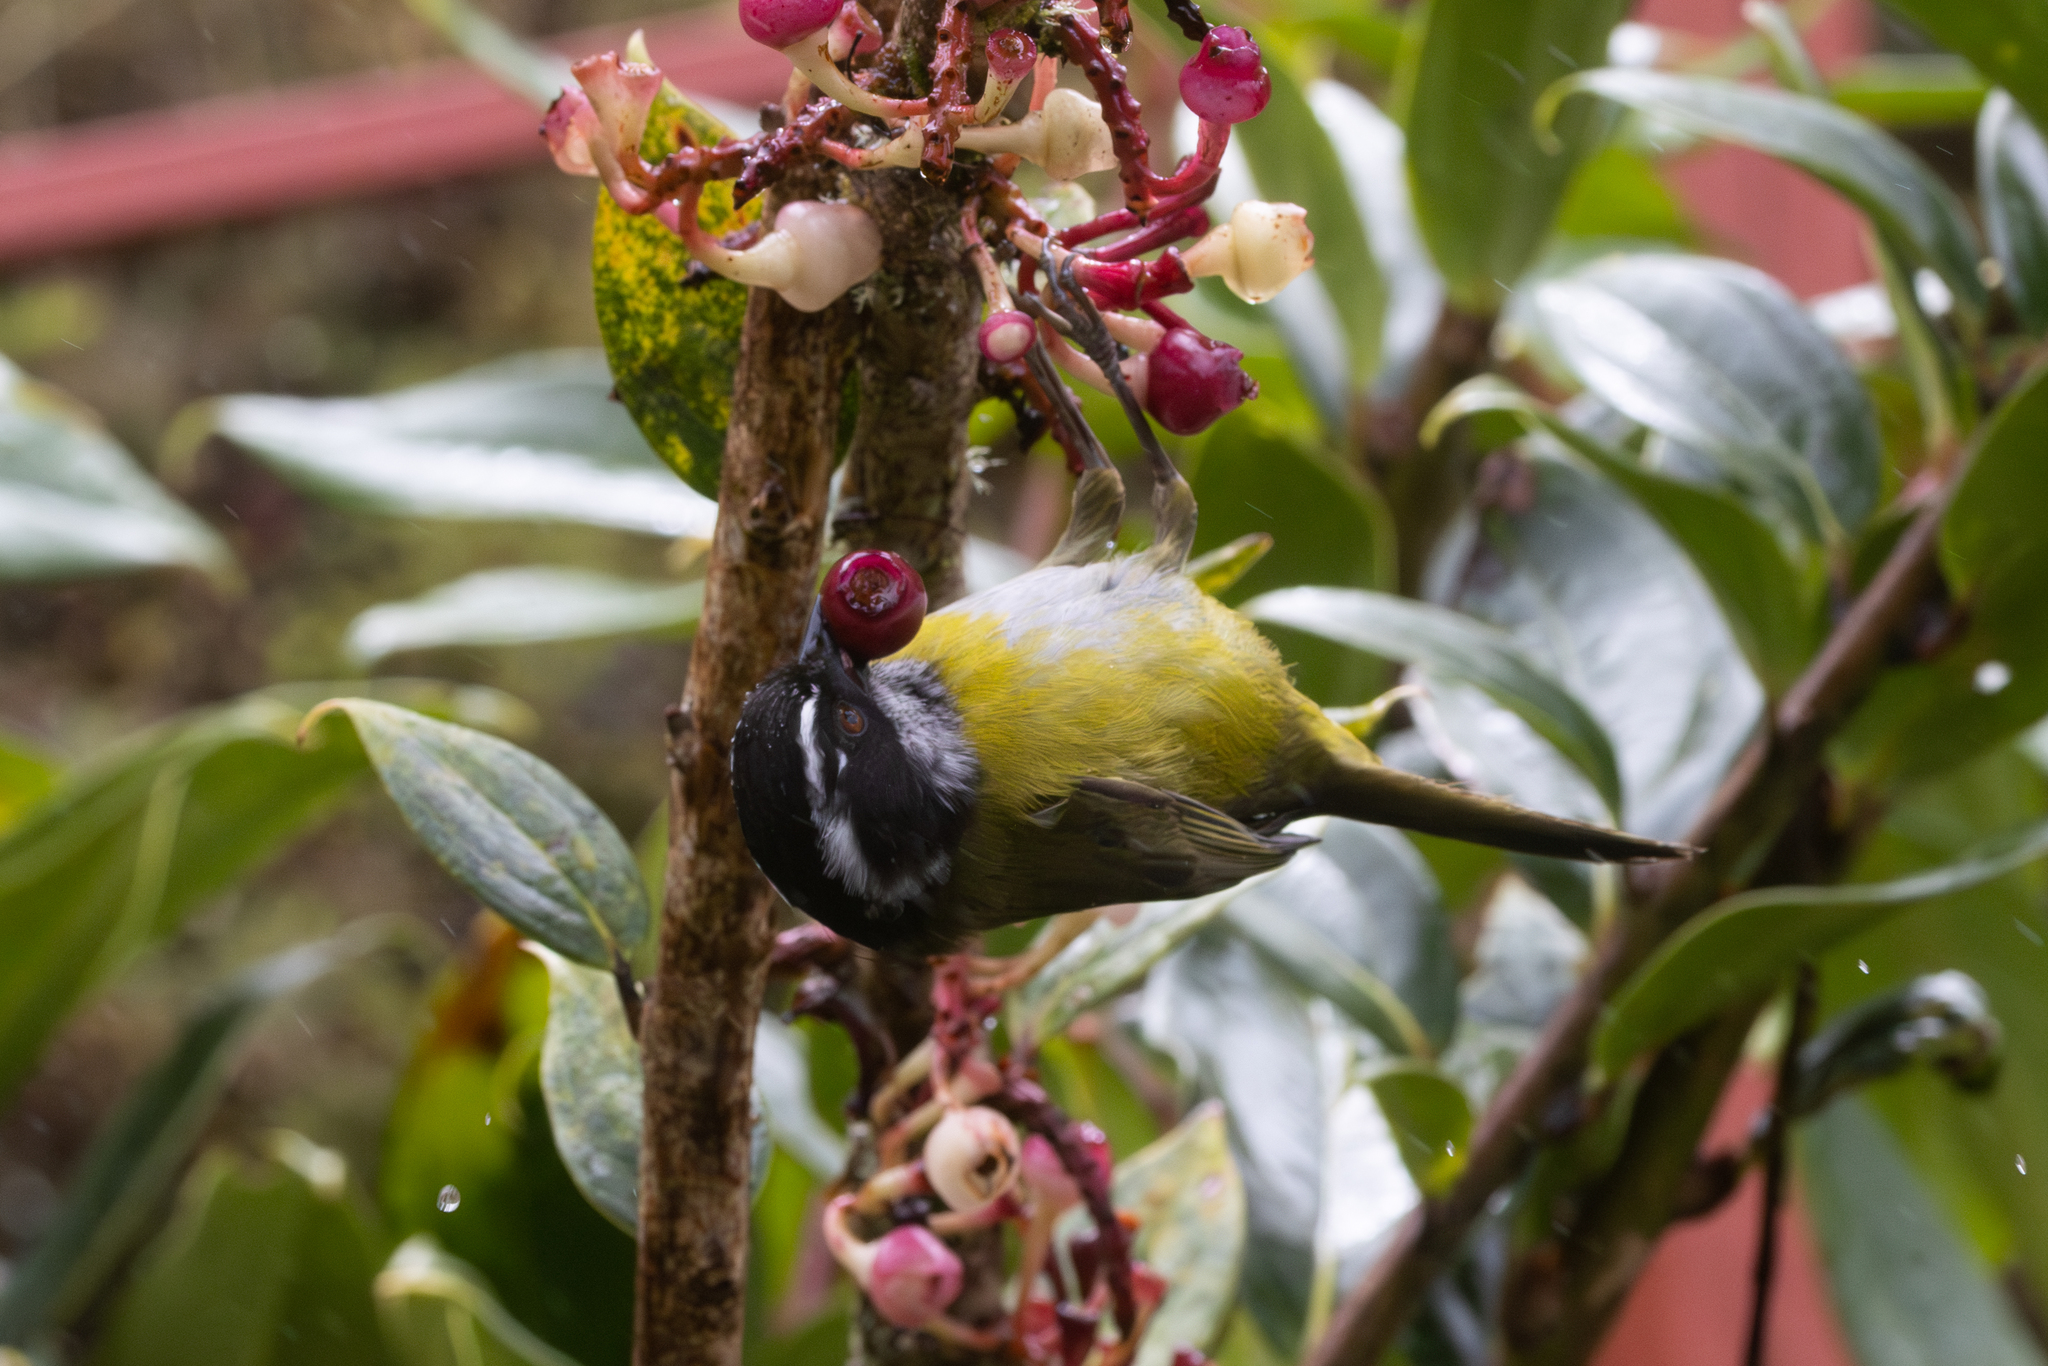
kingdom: Animalia
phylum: Chordata
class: Aves
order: Passeriformes
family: Passerellidae
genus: Chlorospingus
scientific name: Chlorospingus pileatus
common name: Sooty-capped bush-tanager
